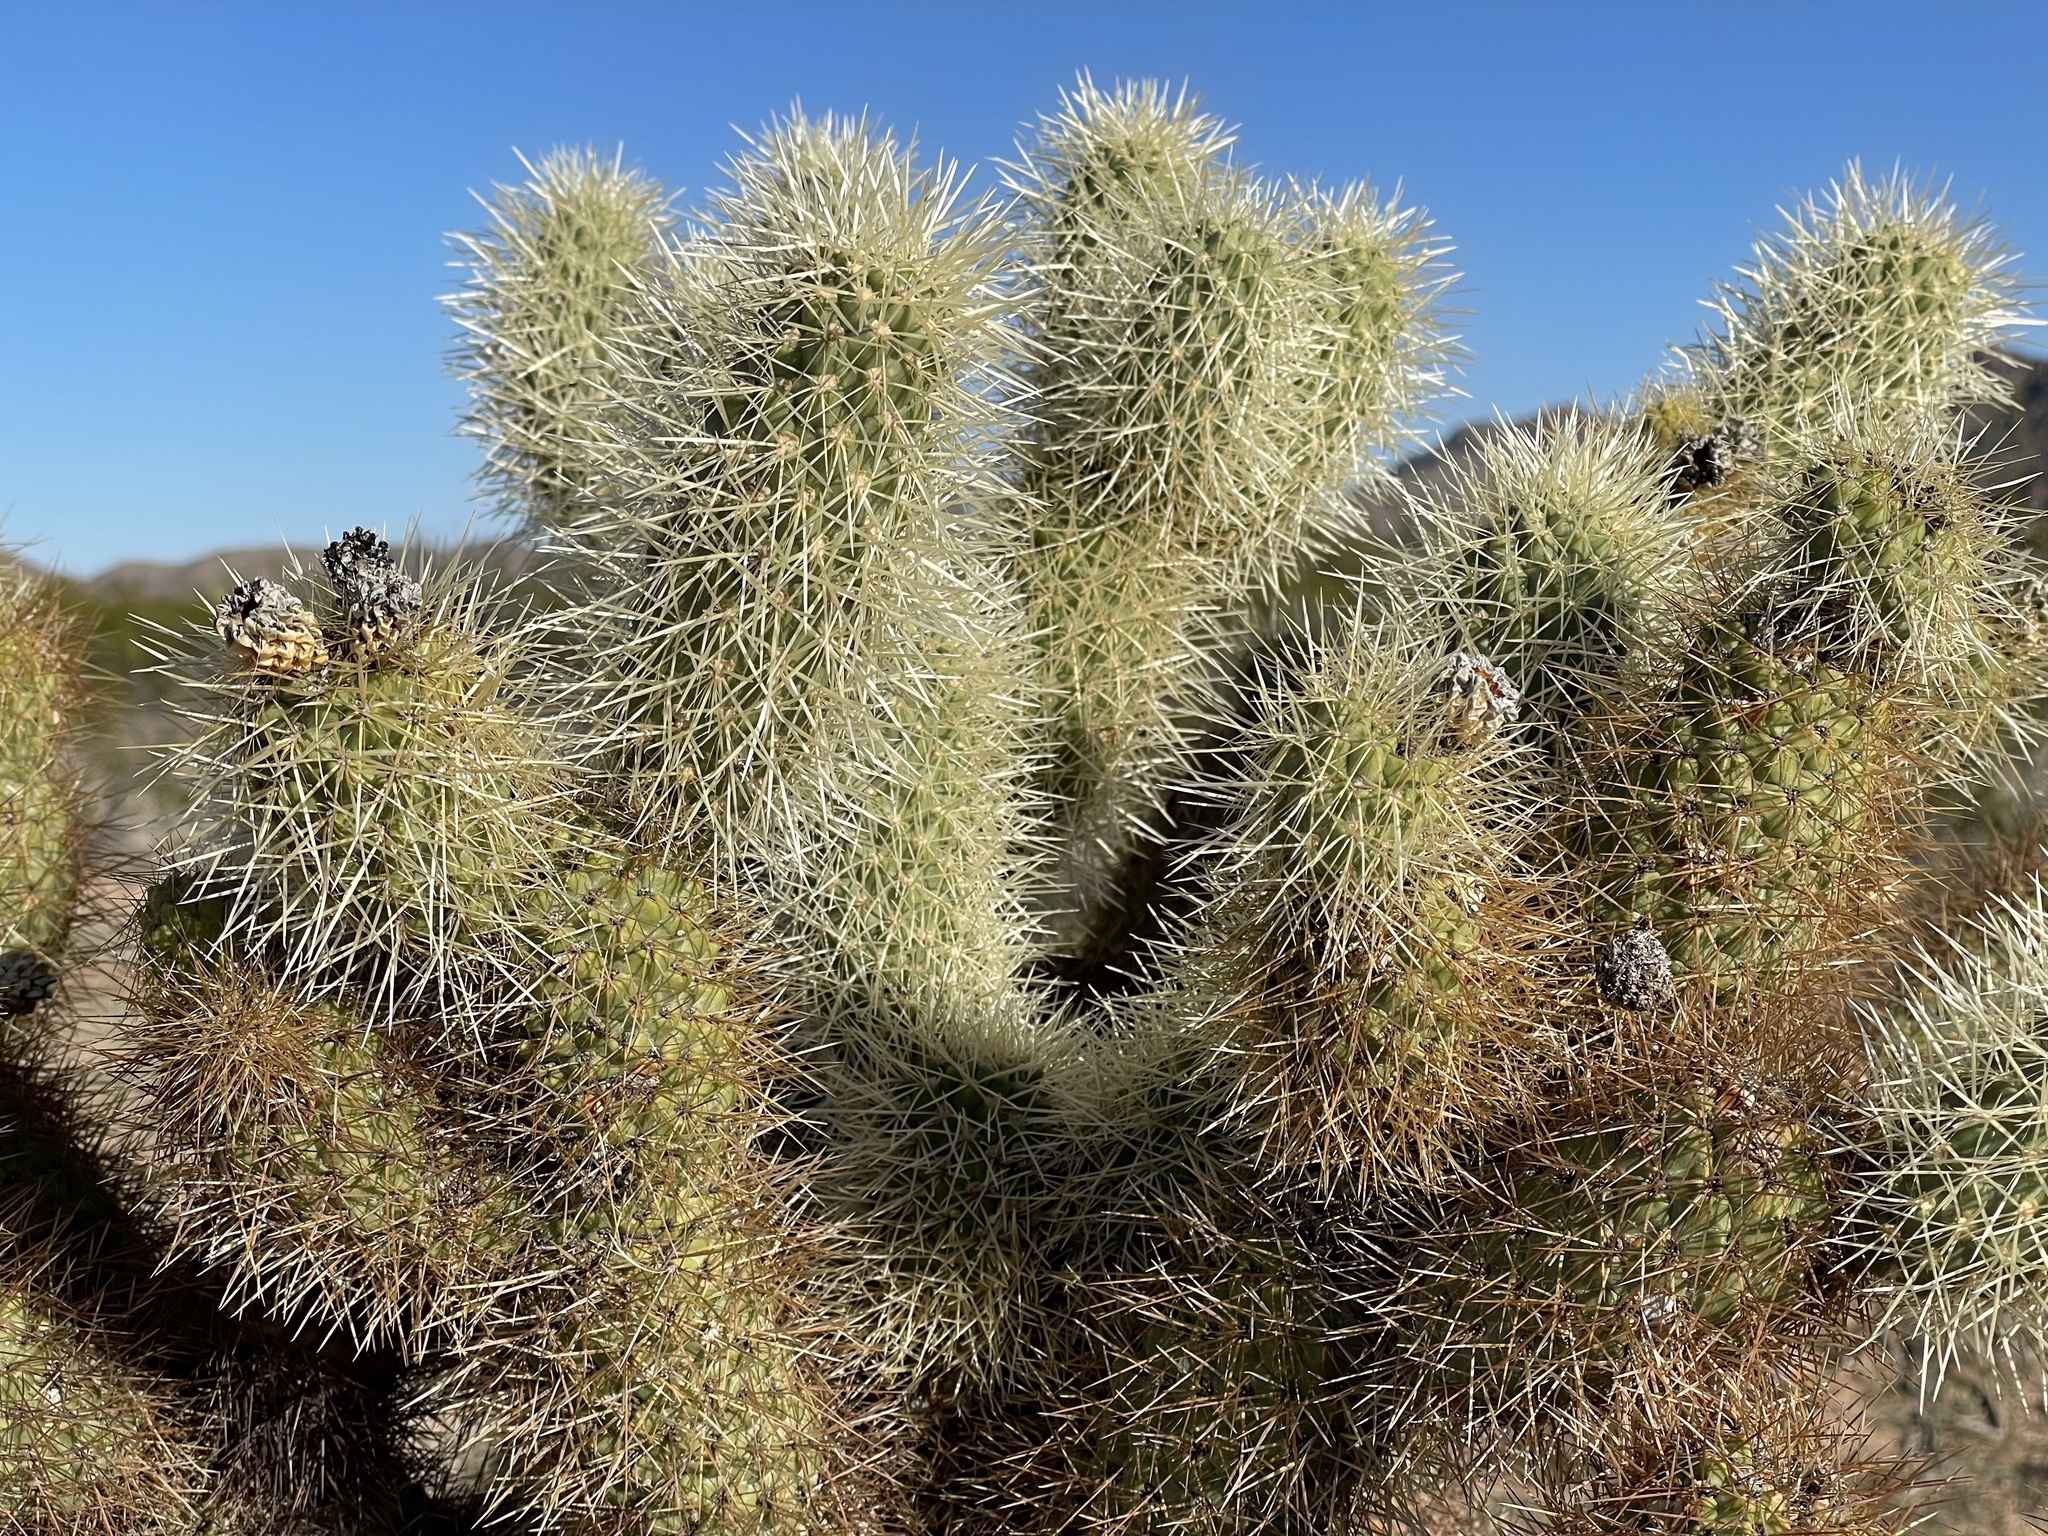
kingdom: Plantae
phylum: Tracheophyta
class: Magnoliopsida
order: Caryophyllales
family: Cactaceae
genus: Cylindropuntia
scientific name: Cylindropuntia fosbergii
